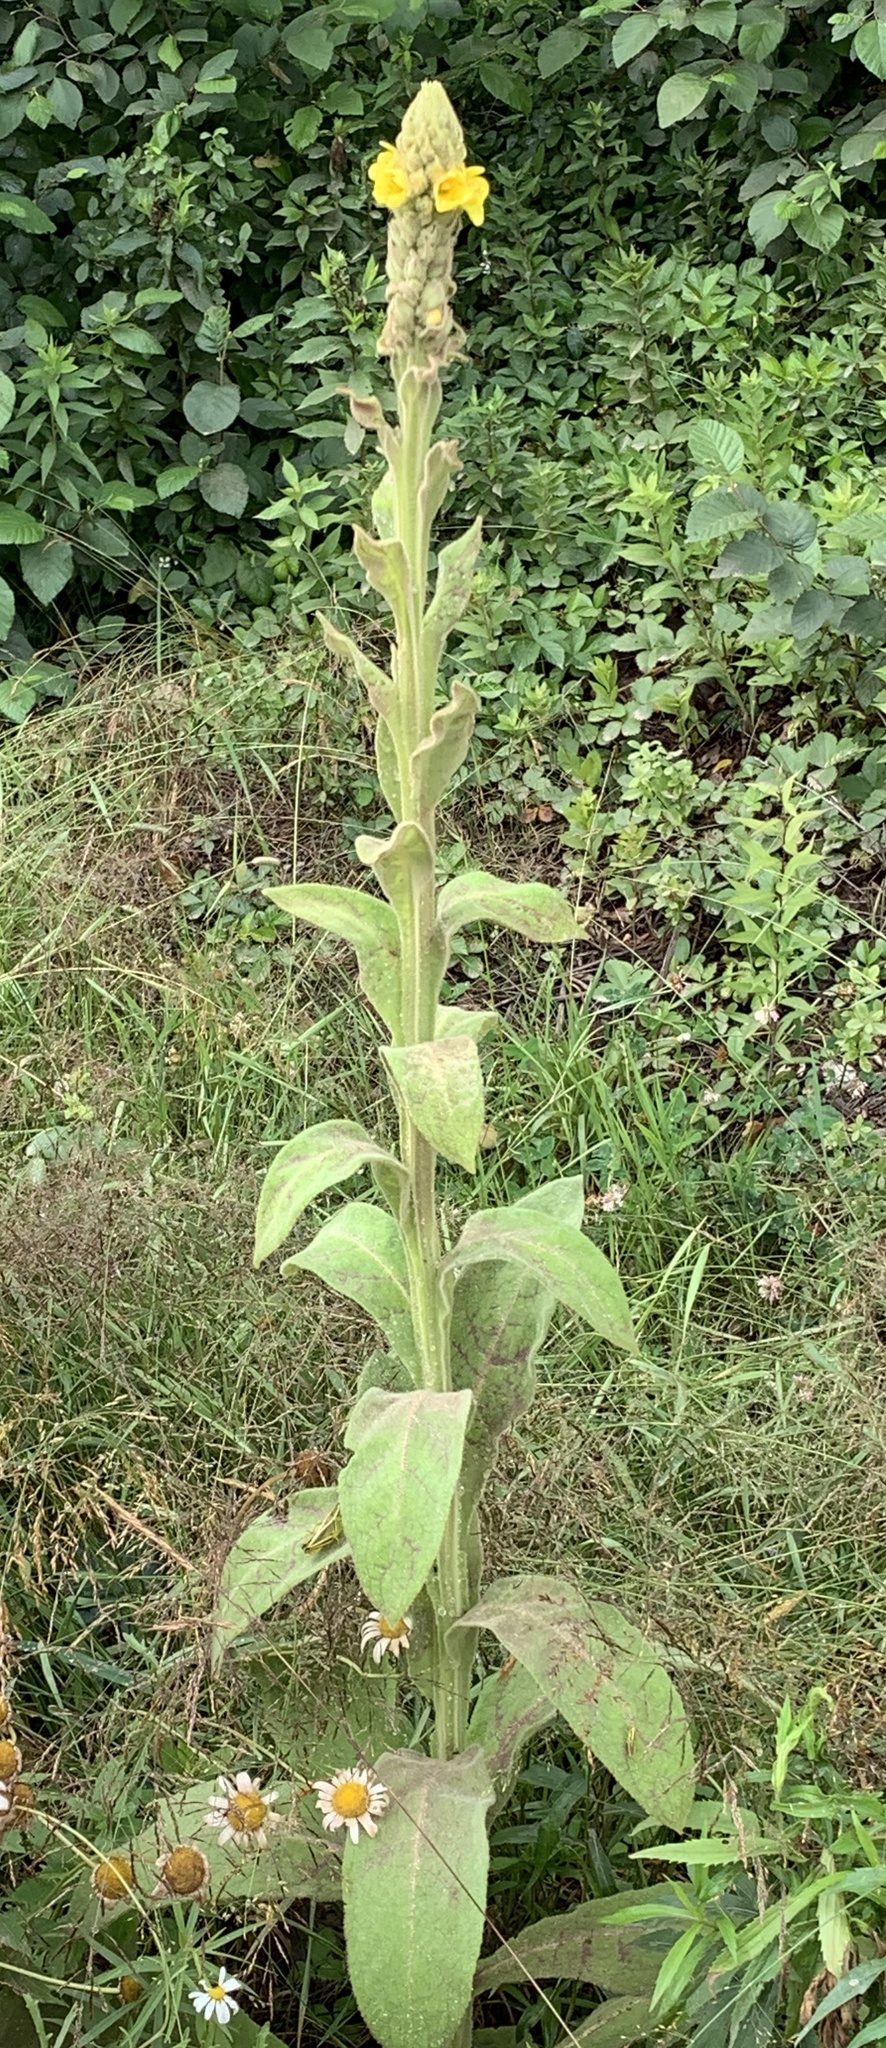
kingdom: Plantae
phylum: Tracheophyta
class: Magnoliopsida
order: Lamiales
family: Scrophulariaceae
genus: Verbascum
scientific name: Verbascum thapsus
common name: Common mullein
